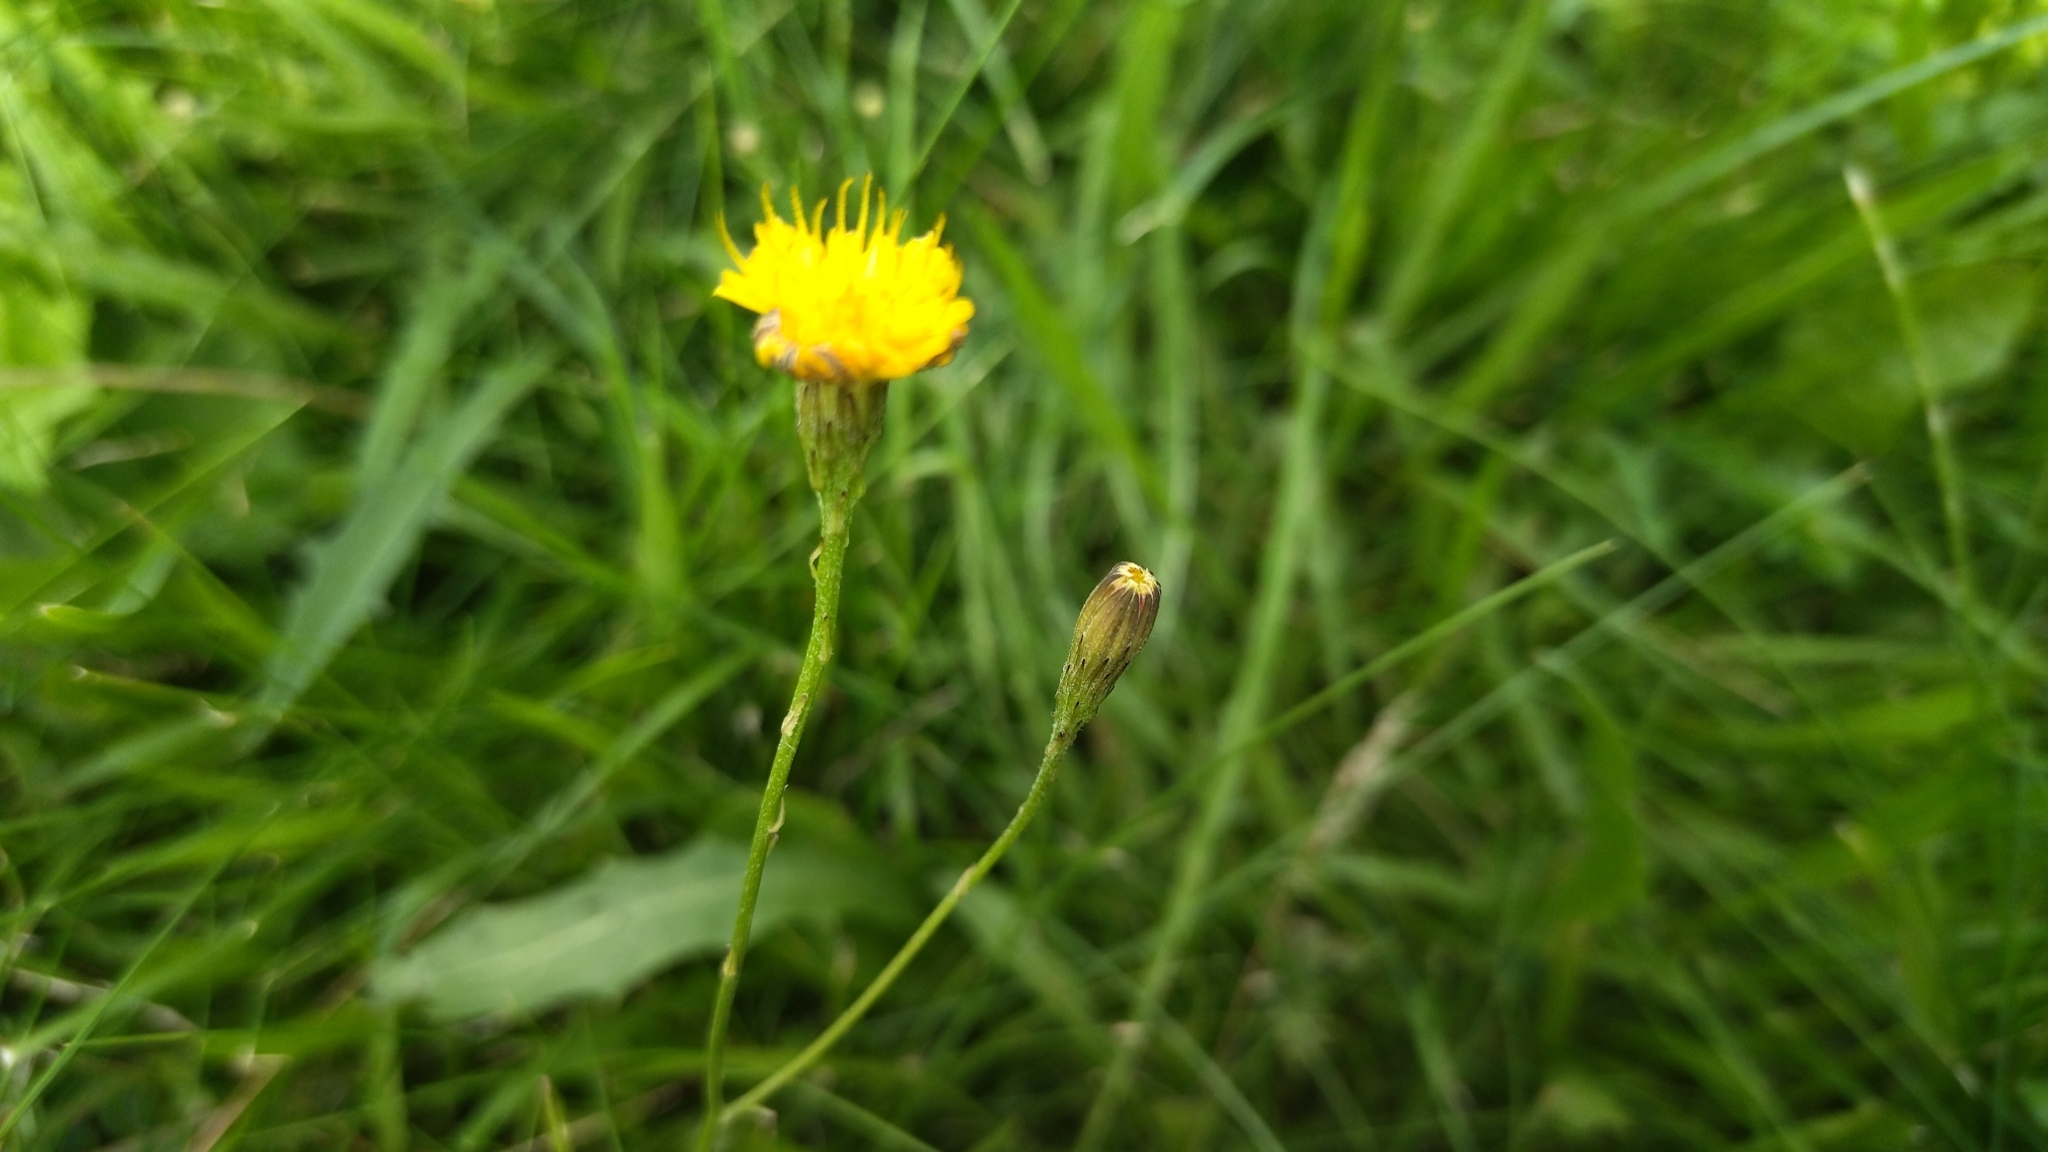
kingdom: Plantae
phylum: Tracheophyta
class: Magnoliopsida
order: Asterales
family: Asteraceae
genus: Scorzoneroides
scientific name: Scorzoneroides autumnalis
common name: Autumn hawkbit
